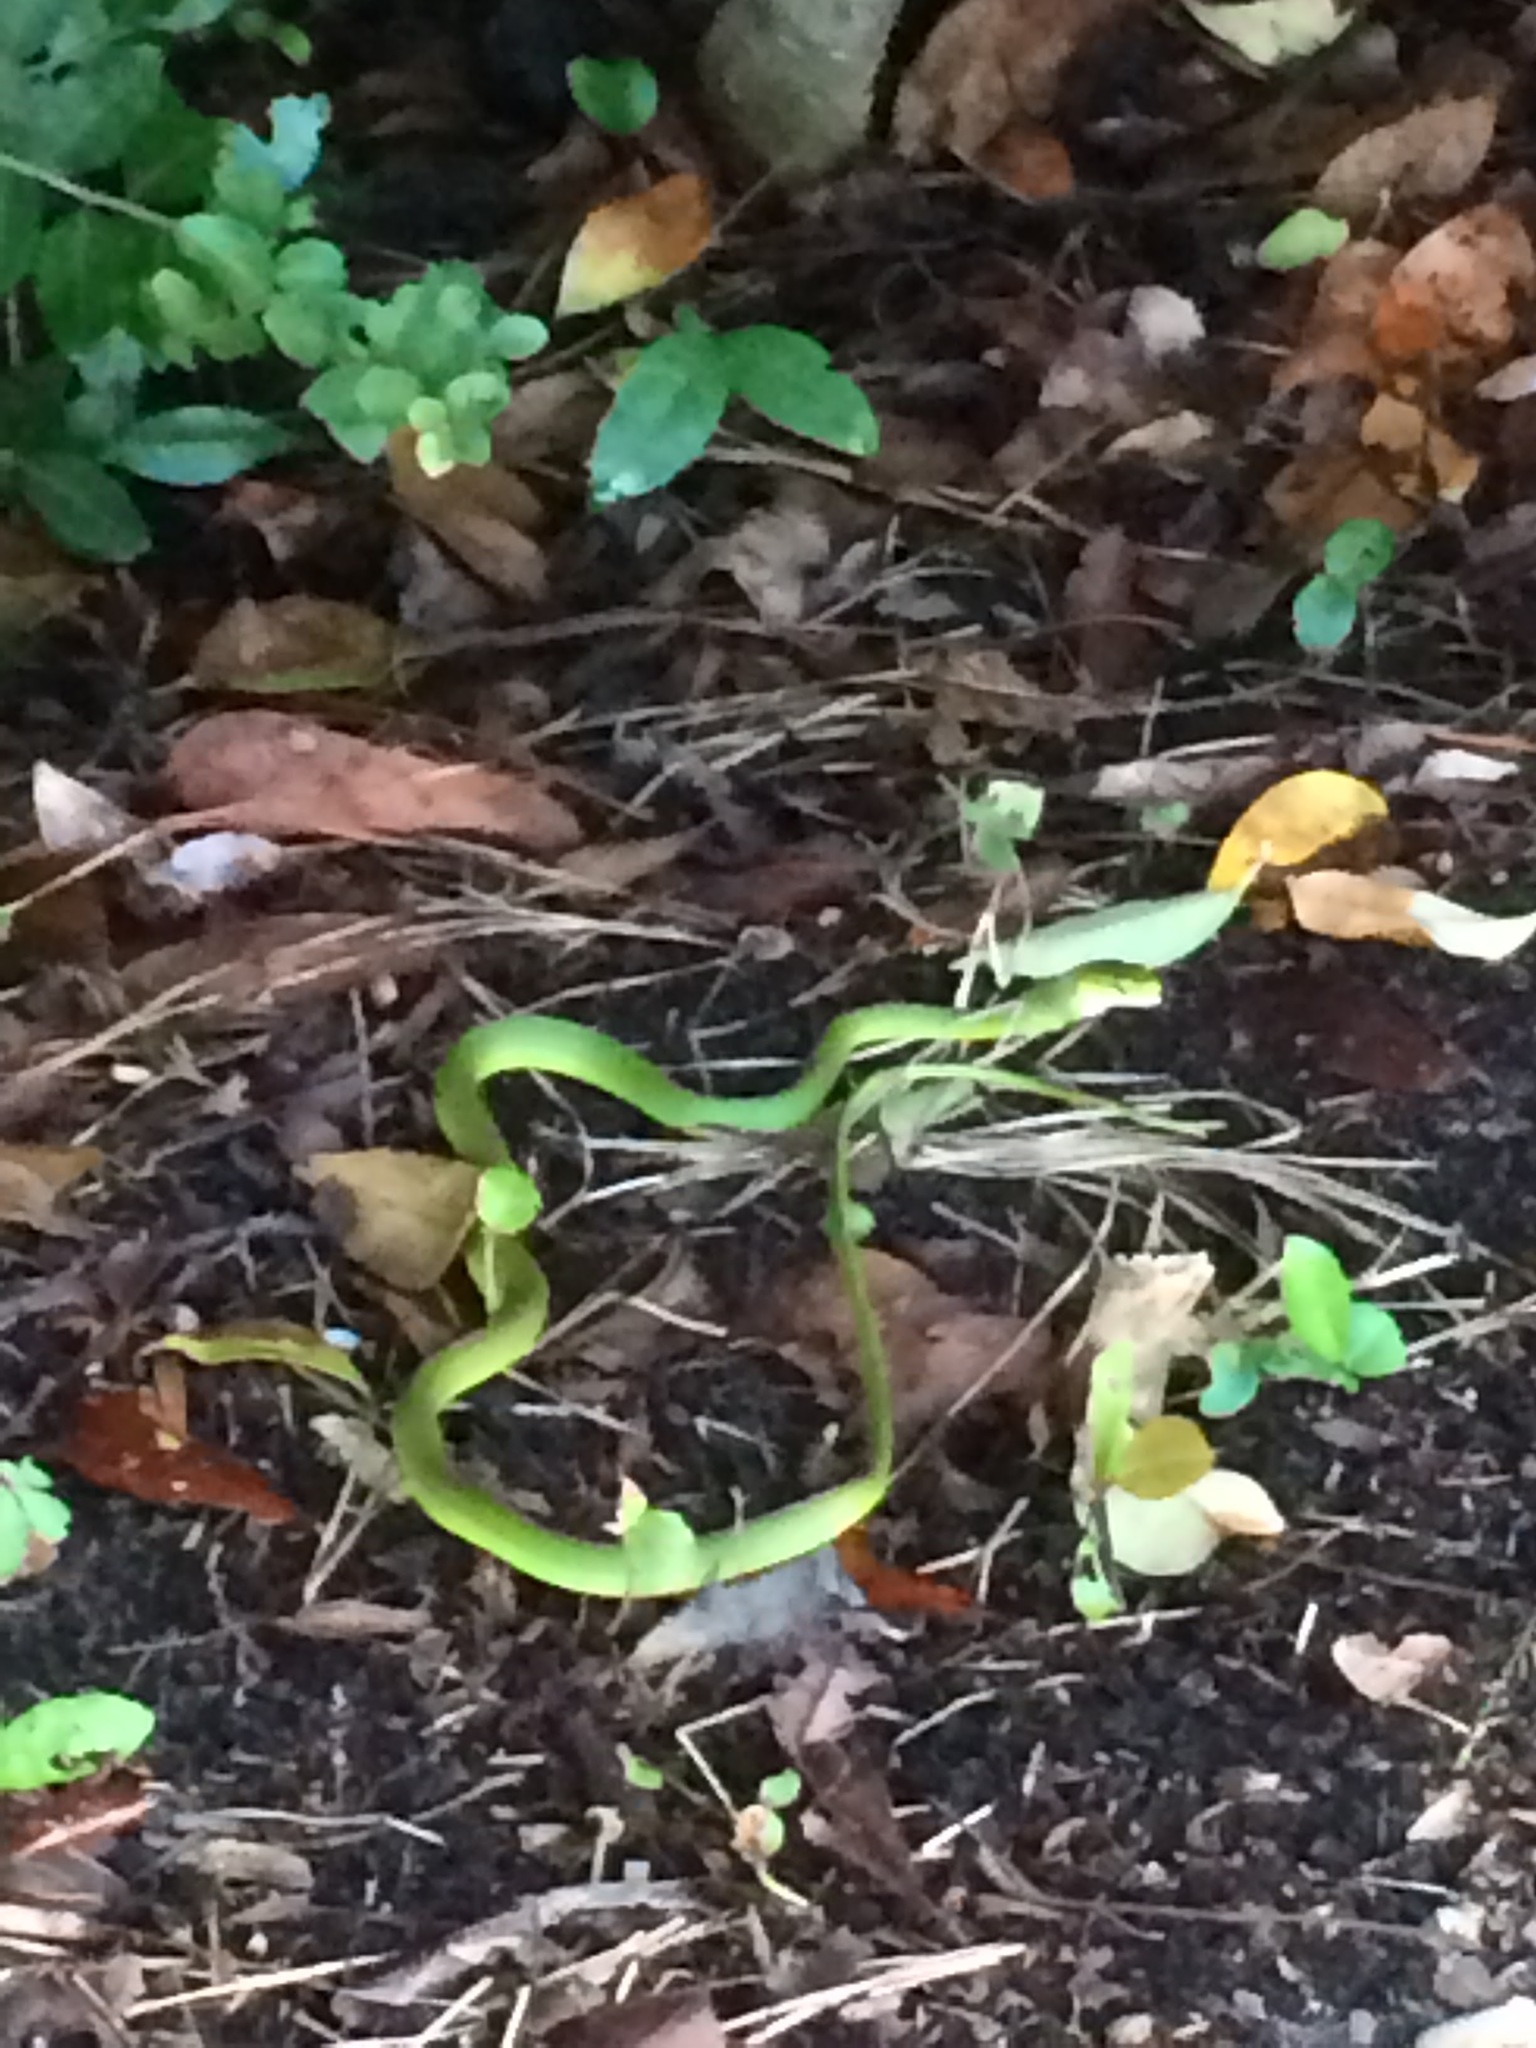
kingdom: Animalia
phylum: Chordata
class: Squamata
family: Colubridae
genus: Opheodrys
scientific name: Opheodrys aestivus
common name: Rough greensnake
